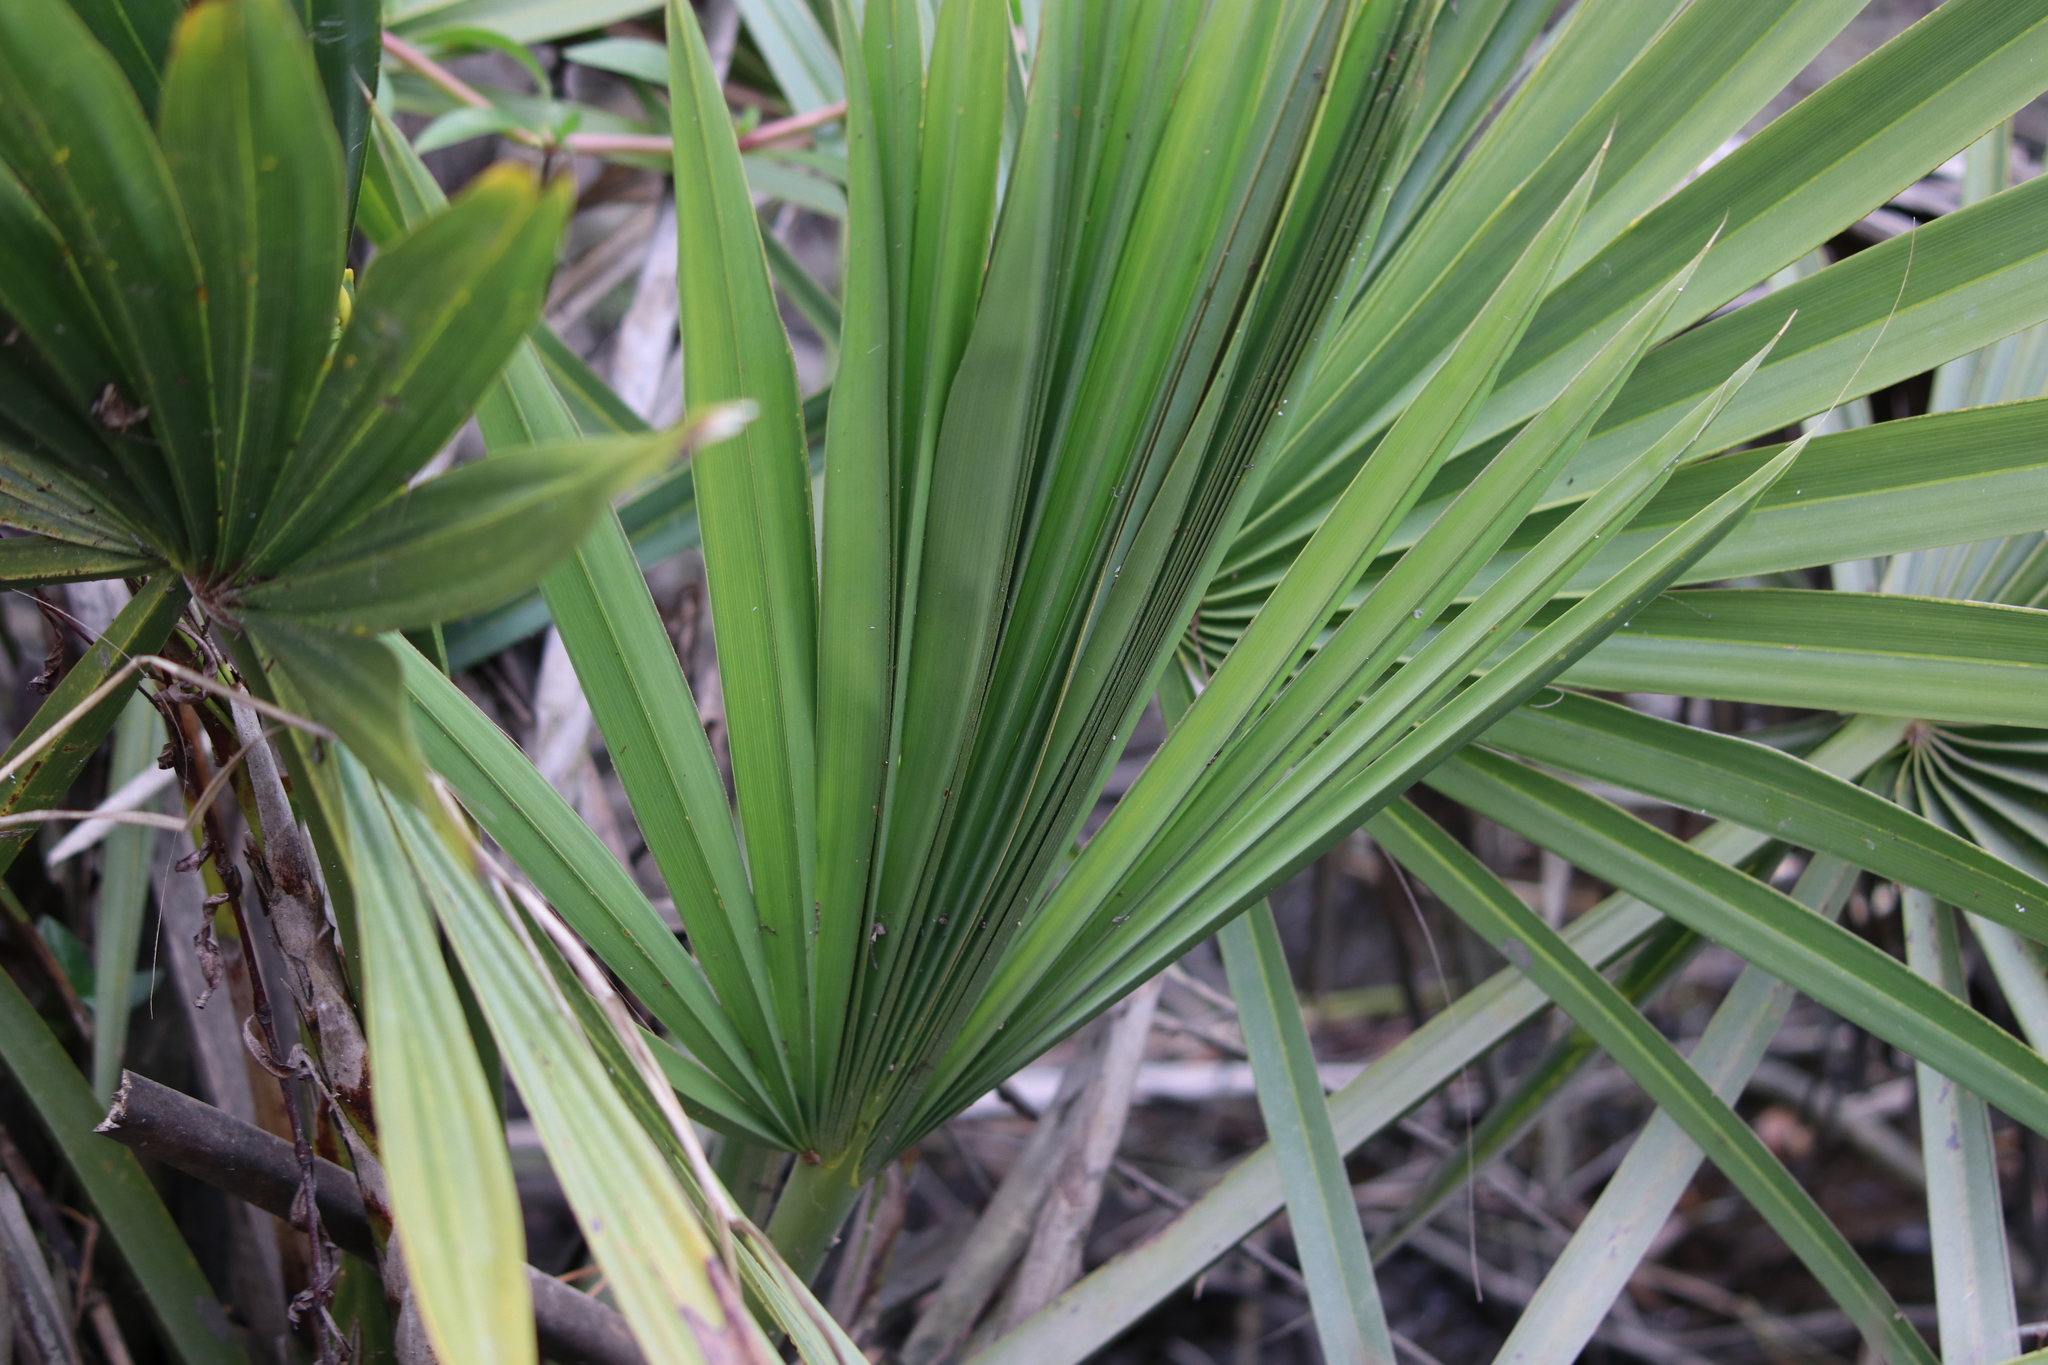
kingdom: Plantae
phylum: Tracheophyta
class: Liliopsida
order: Arecales
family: Arecaceae
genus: Sabal
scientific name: Sabal minor
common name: Dwarf palmetto
